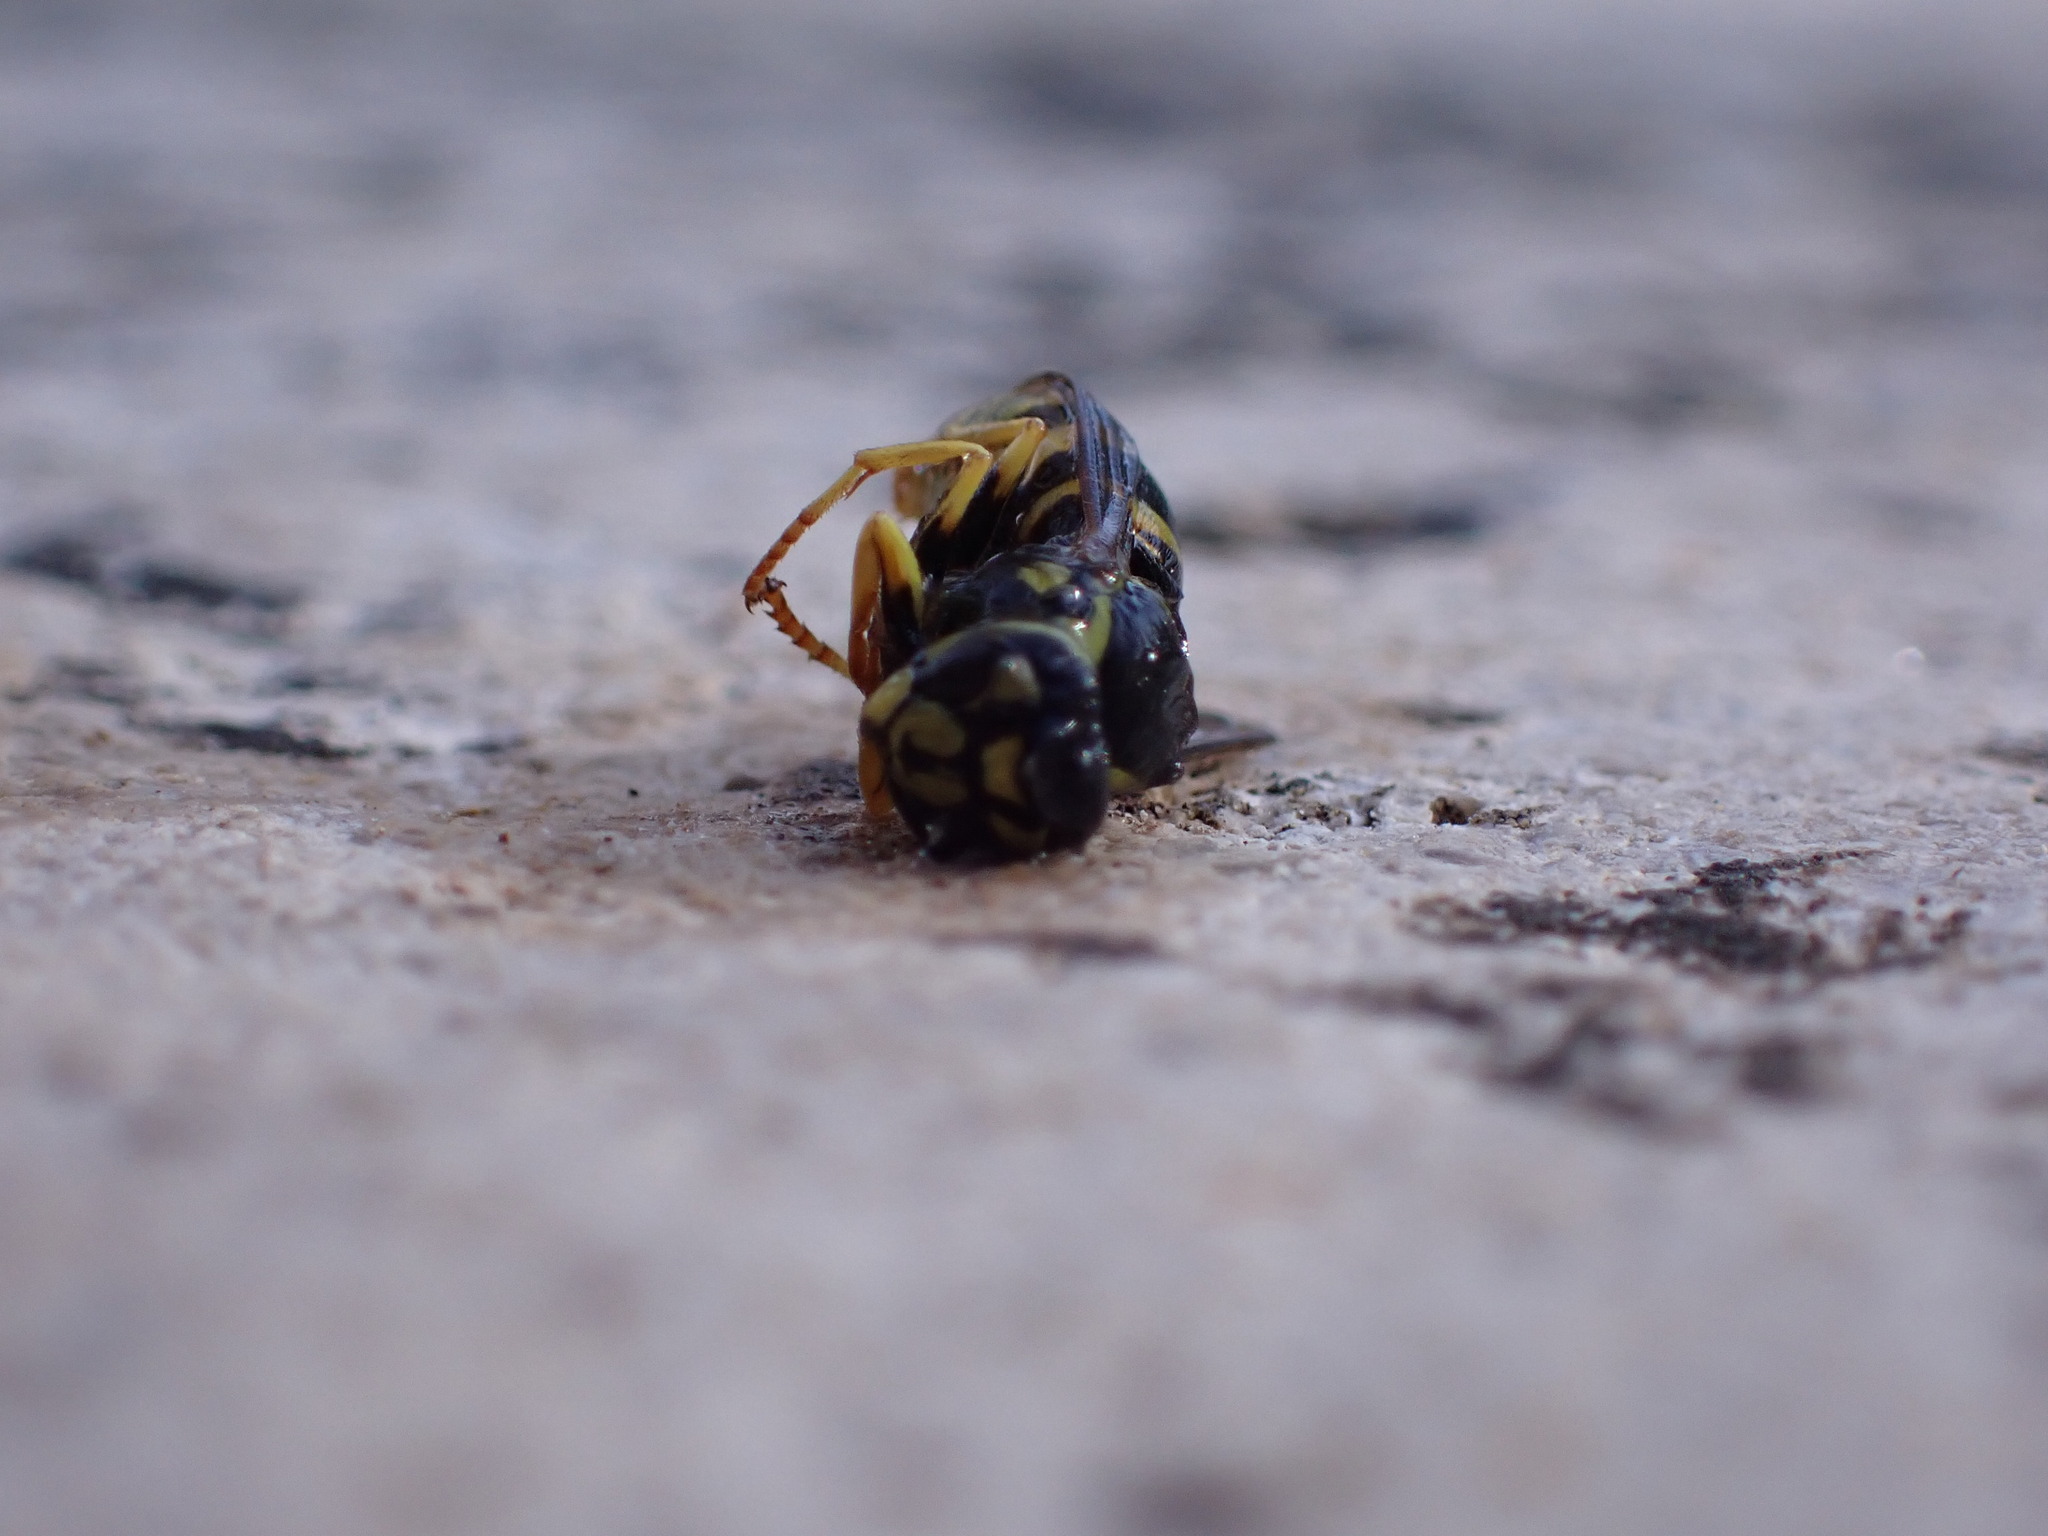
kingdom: Animalia
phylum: Arthropoda
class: Insecta
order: Hymenoptera
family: Vespidae
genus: Vespula
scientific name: Vespula vulgaris
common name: Common wasp
